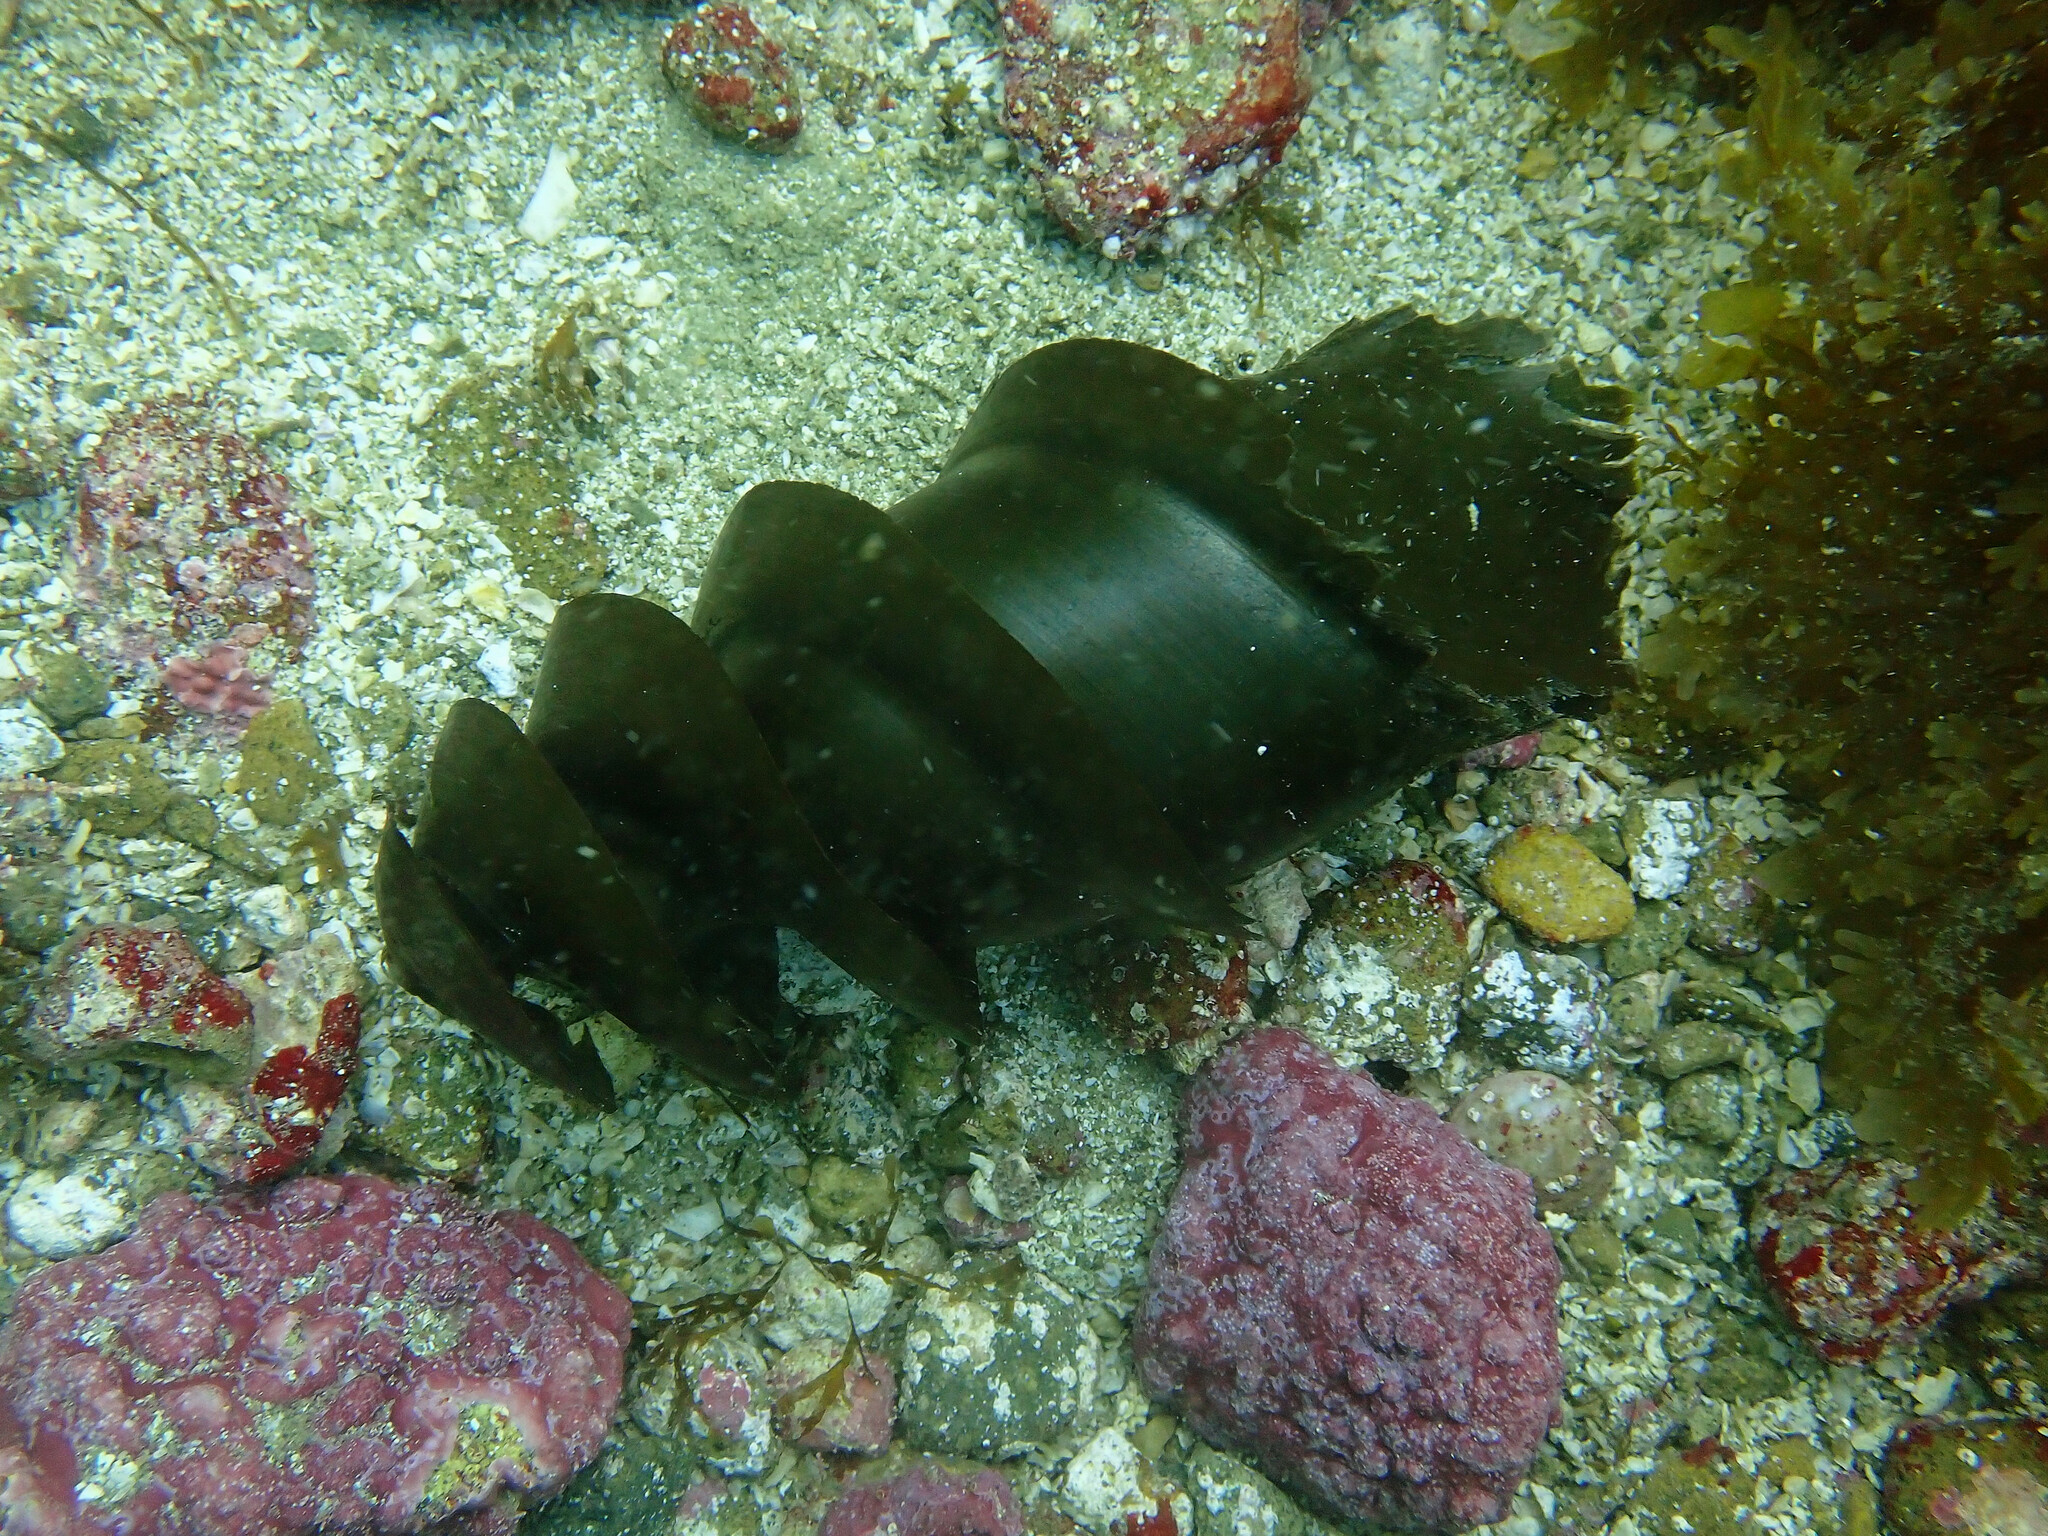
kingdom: Animalia
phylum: Chordata
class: Elasmobranchii
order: Heterodontiformes
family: Heterodontidae
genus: Heterodontus
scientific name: Heterodontus francisci
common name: Horn shark
